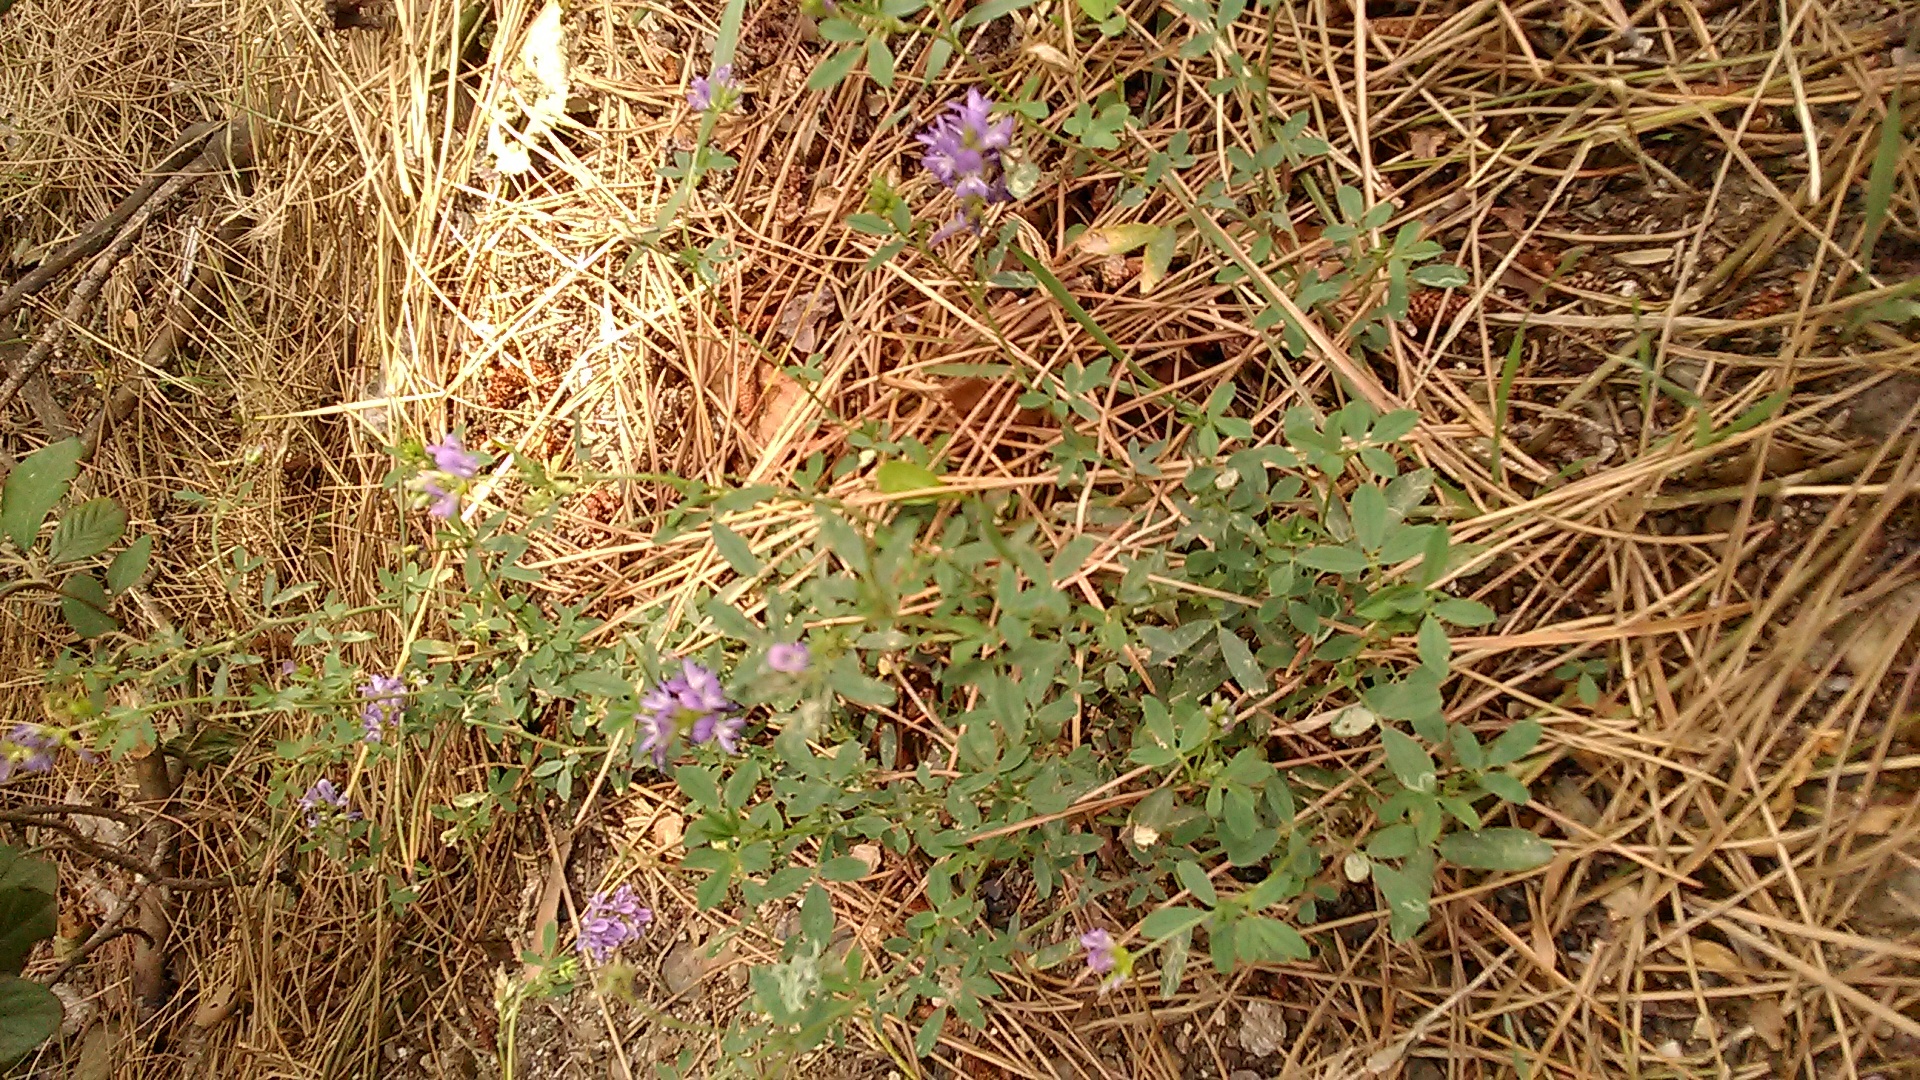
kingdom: Plantae
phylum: Tracheophyta
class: Magnoliopsida
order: Fabales
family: Fabaceae
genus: Medicago
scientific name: Medicago sativa
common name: Alfalfa
